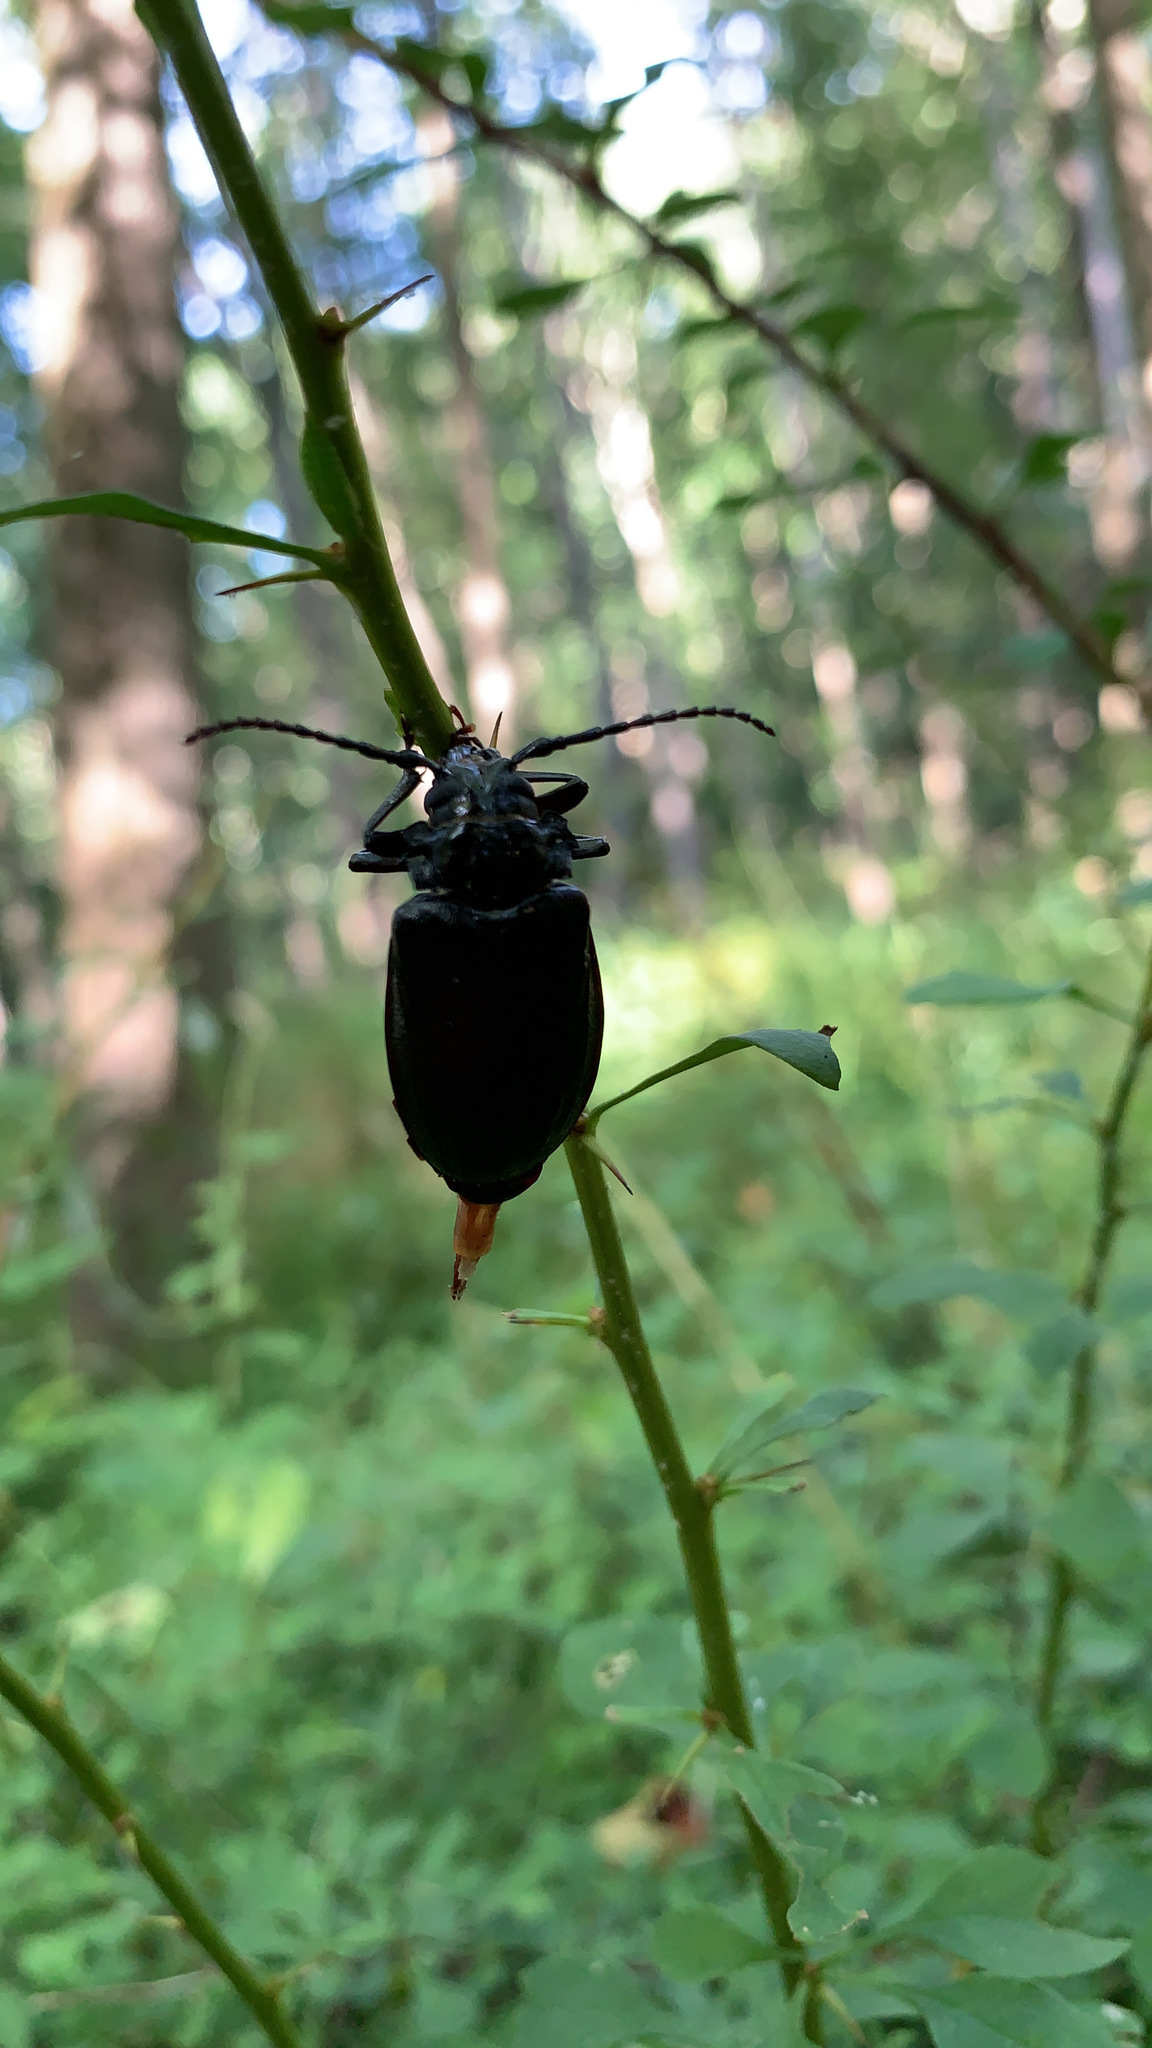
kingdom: Animalia
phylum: Arthropoda
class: Insecta
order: Coleoptera
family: Cerambycidae
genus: Prionus
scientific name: Prionus laticollis
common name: Broad necked prionus
